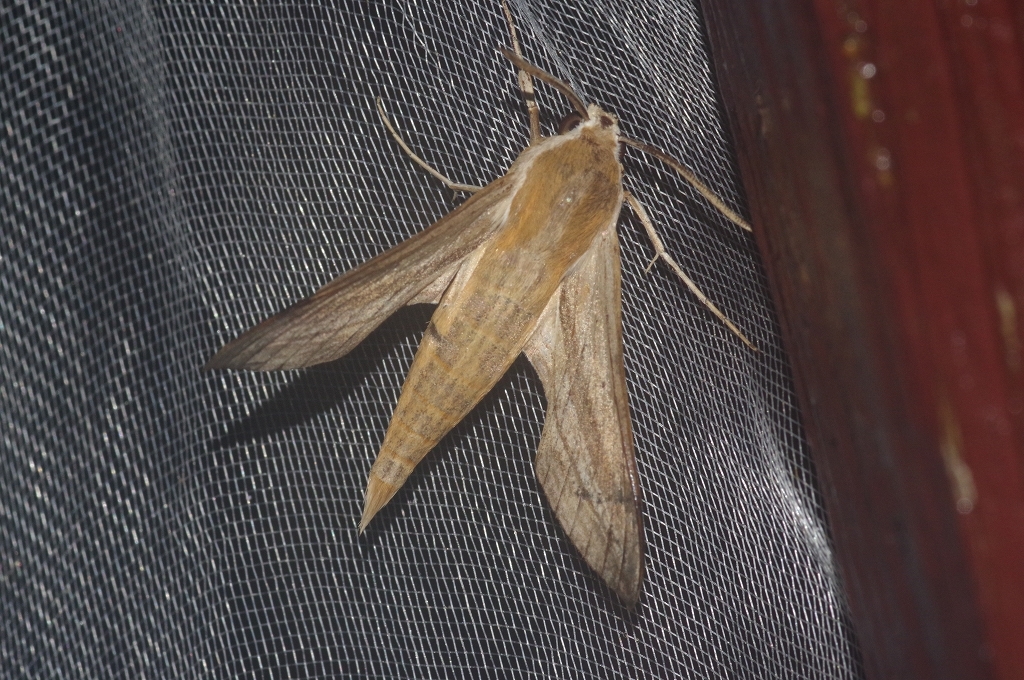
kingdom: Animalia
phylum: Arthropoda
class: Insecta
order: Lepidoptera
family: Sphingidae
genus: Theretra
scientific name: Theretra japonica
